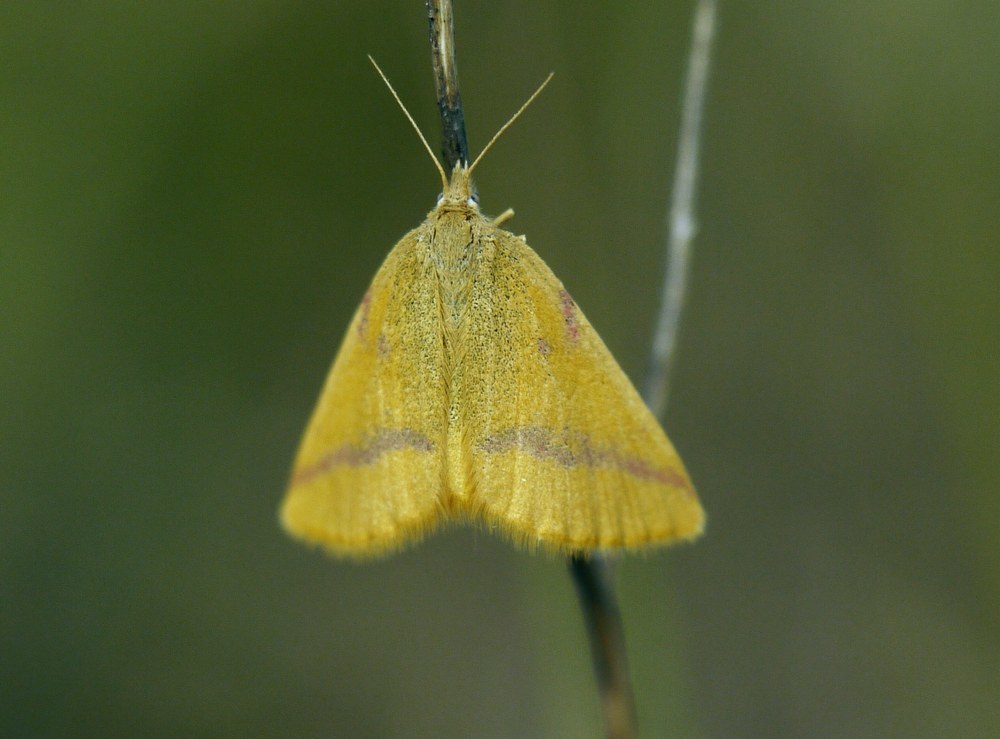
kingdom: Animalia
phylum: Arthropoda
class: Insecta
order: Lepidoptera
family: Geometridae
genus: Lythria
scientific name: Lythria purpuraria
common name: Purple-barred yellow
